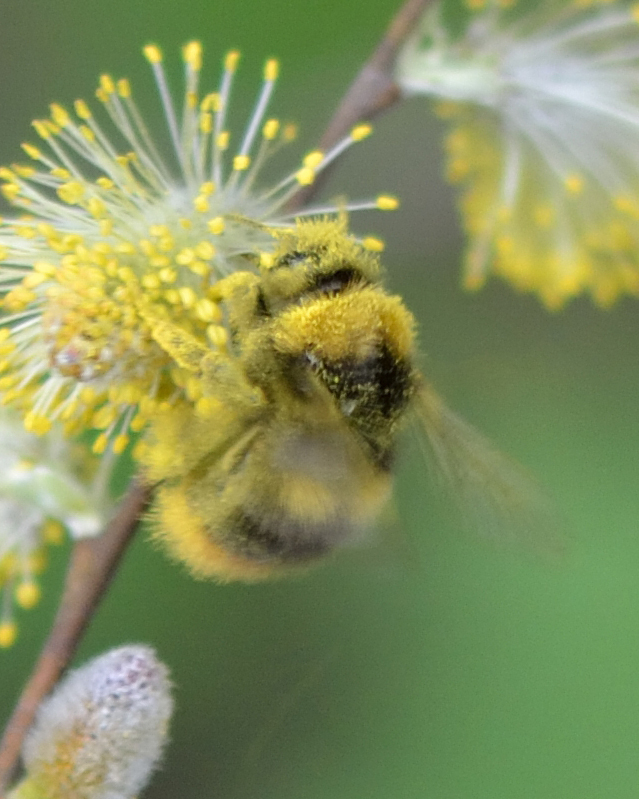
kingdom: Animalia
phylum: Arthropoda
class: Insecta
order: Hymenoptera
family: Apidae
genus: Bombus
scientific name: Bombus pratorum
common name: Early humble-bee
